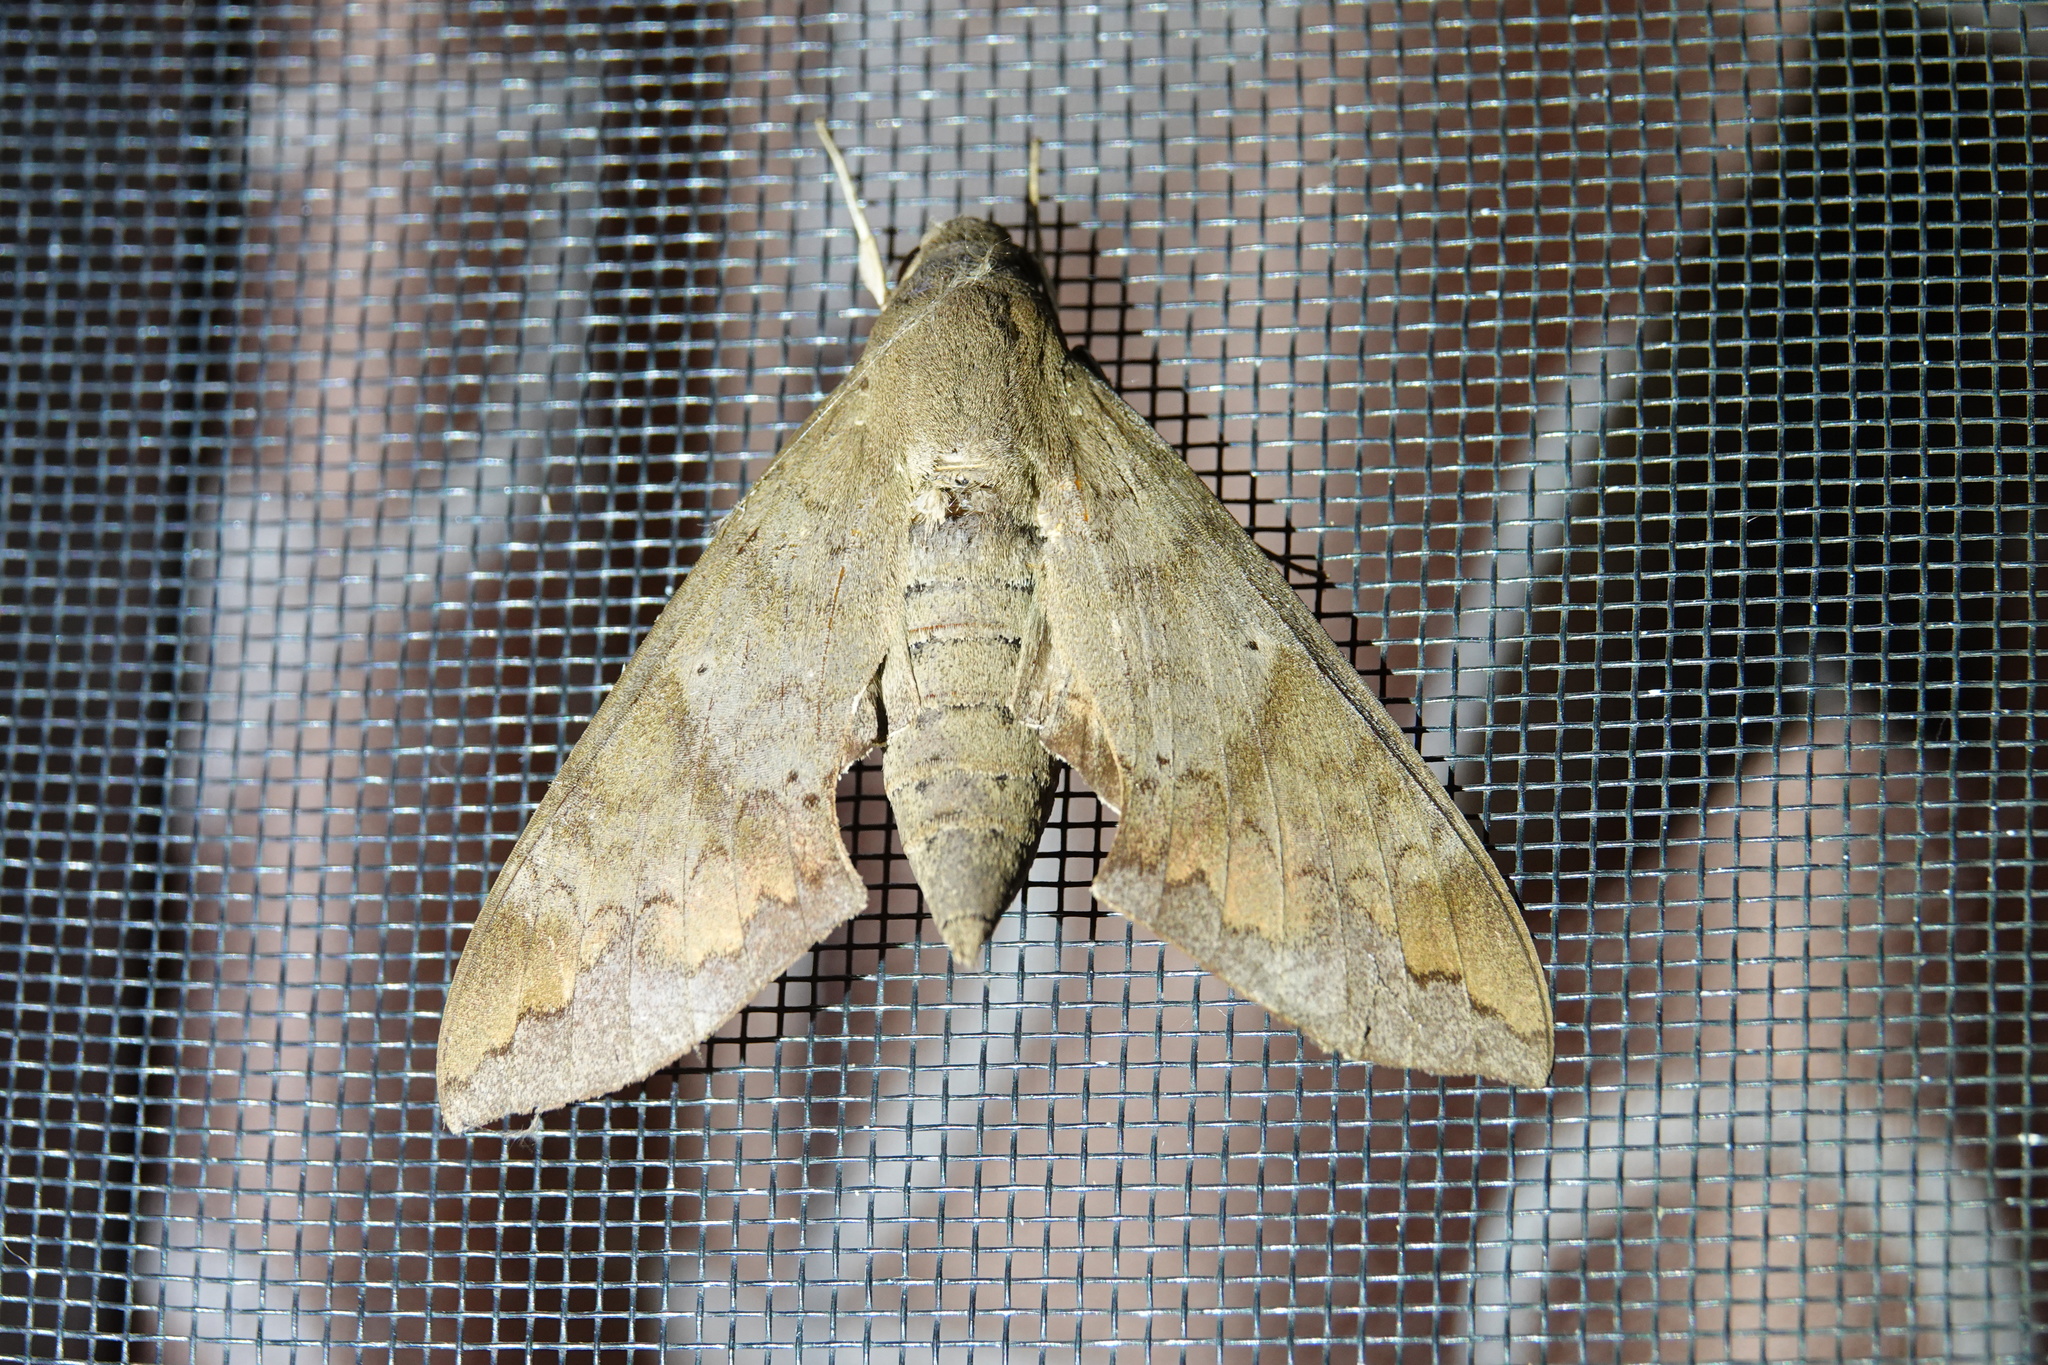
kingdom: Animalia
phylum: Arthropoda
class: Insecta
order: Lepidoptera
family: Sphingidae
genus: Pachylioides
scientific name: Pachylioides resumens
